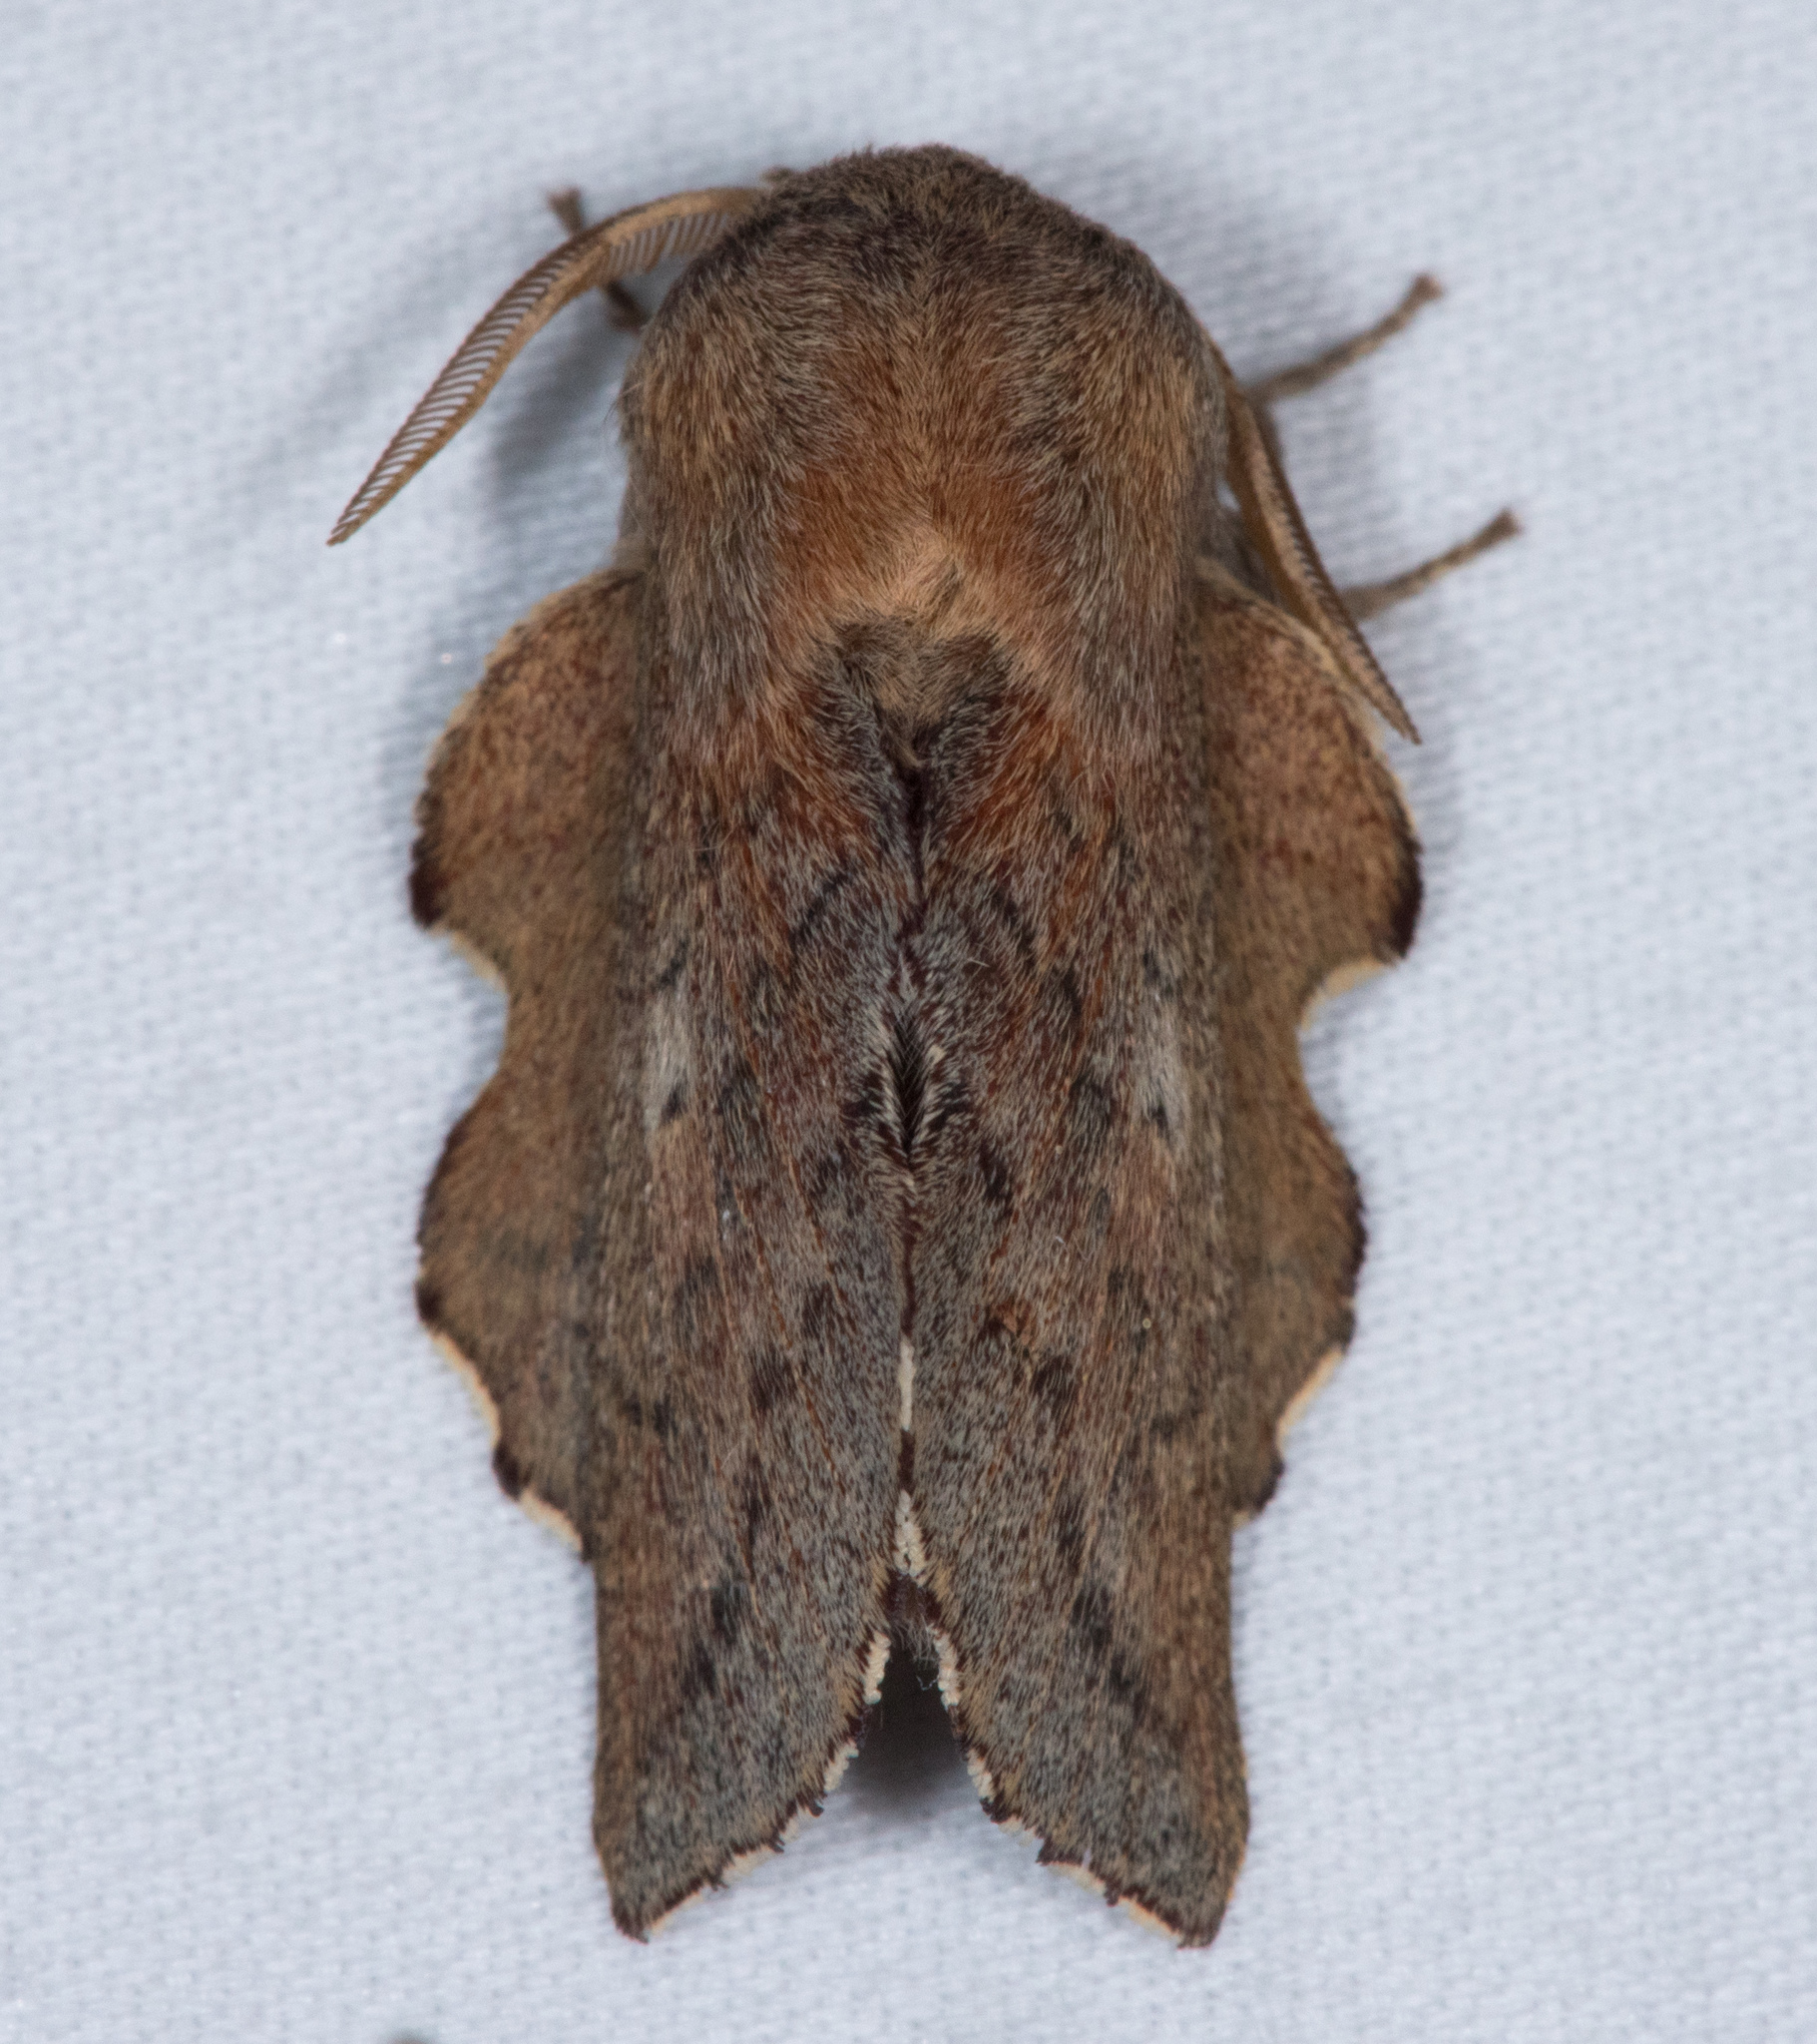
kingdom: Animalia
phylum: Arthropoda
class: Insecta
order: Lepidoptera
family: Lasiocampidae
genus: Phyllodesma
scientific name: Phyllodesma americana
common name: American lappet moth
